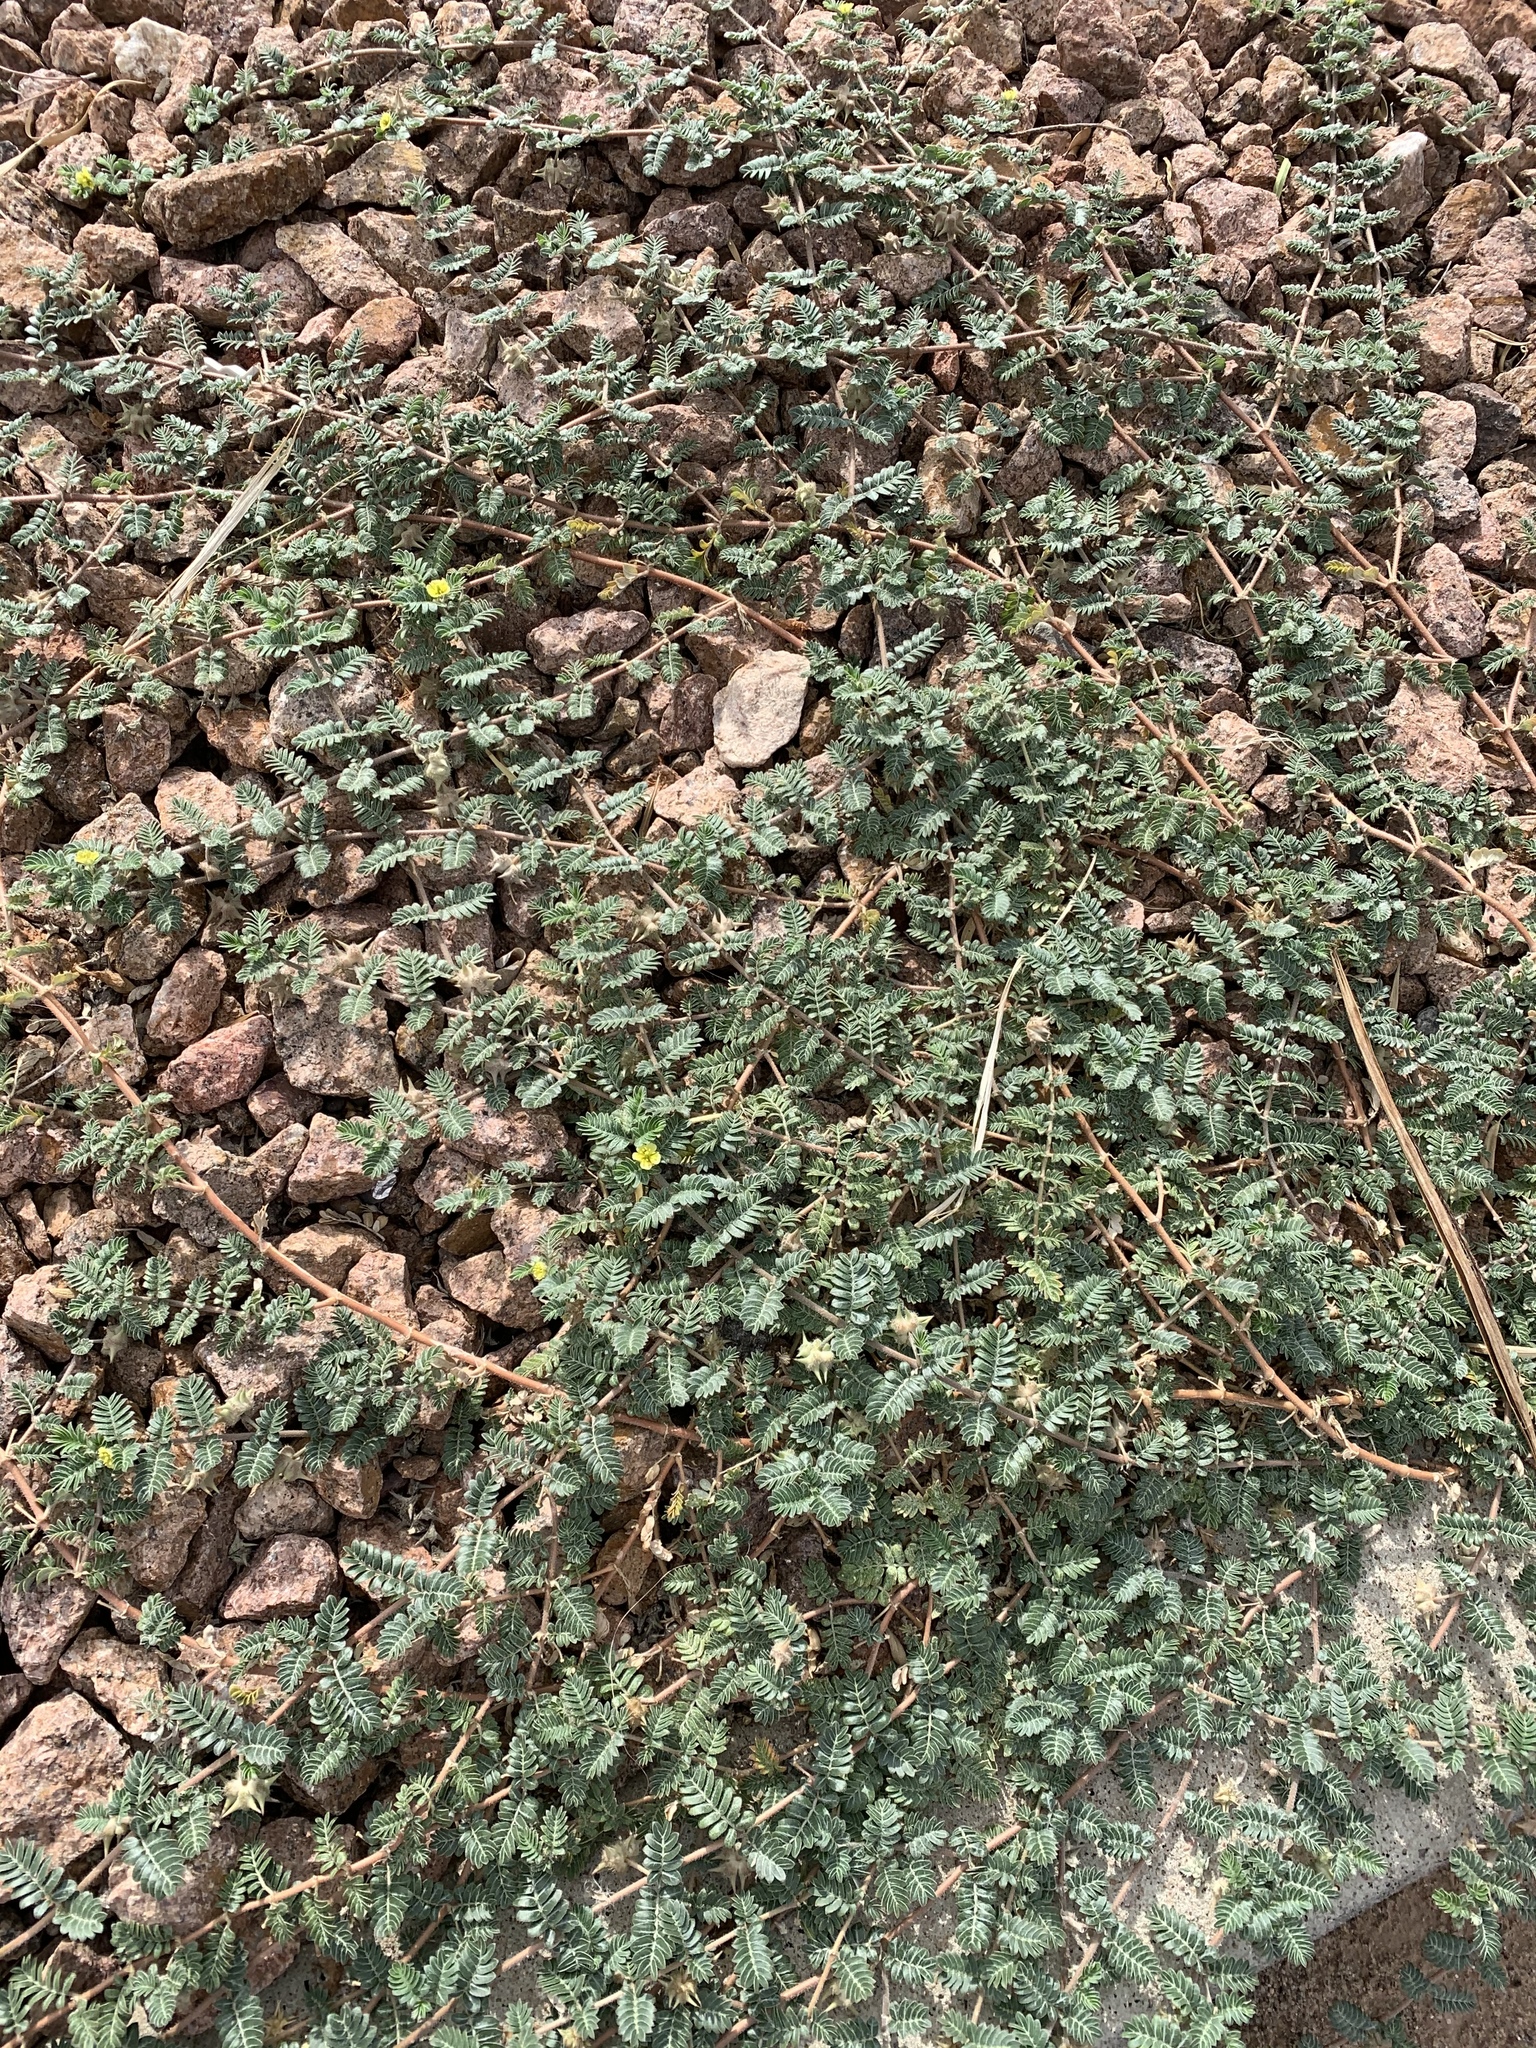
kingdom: Plantae
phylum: Tracheophyta
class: Magnoliopsida
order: Zygophyllales
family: Zygophyllaceae
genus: Tribulus
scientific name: Tribulus terrestris
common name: Puncturevine
